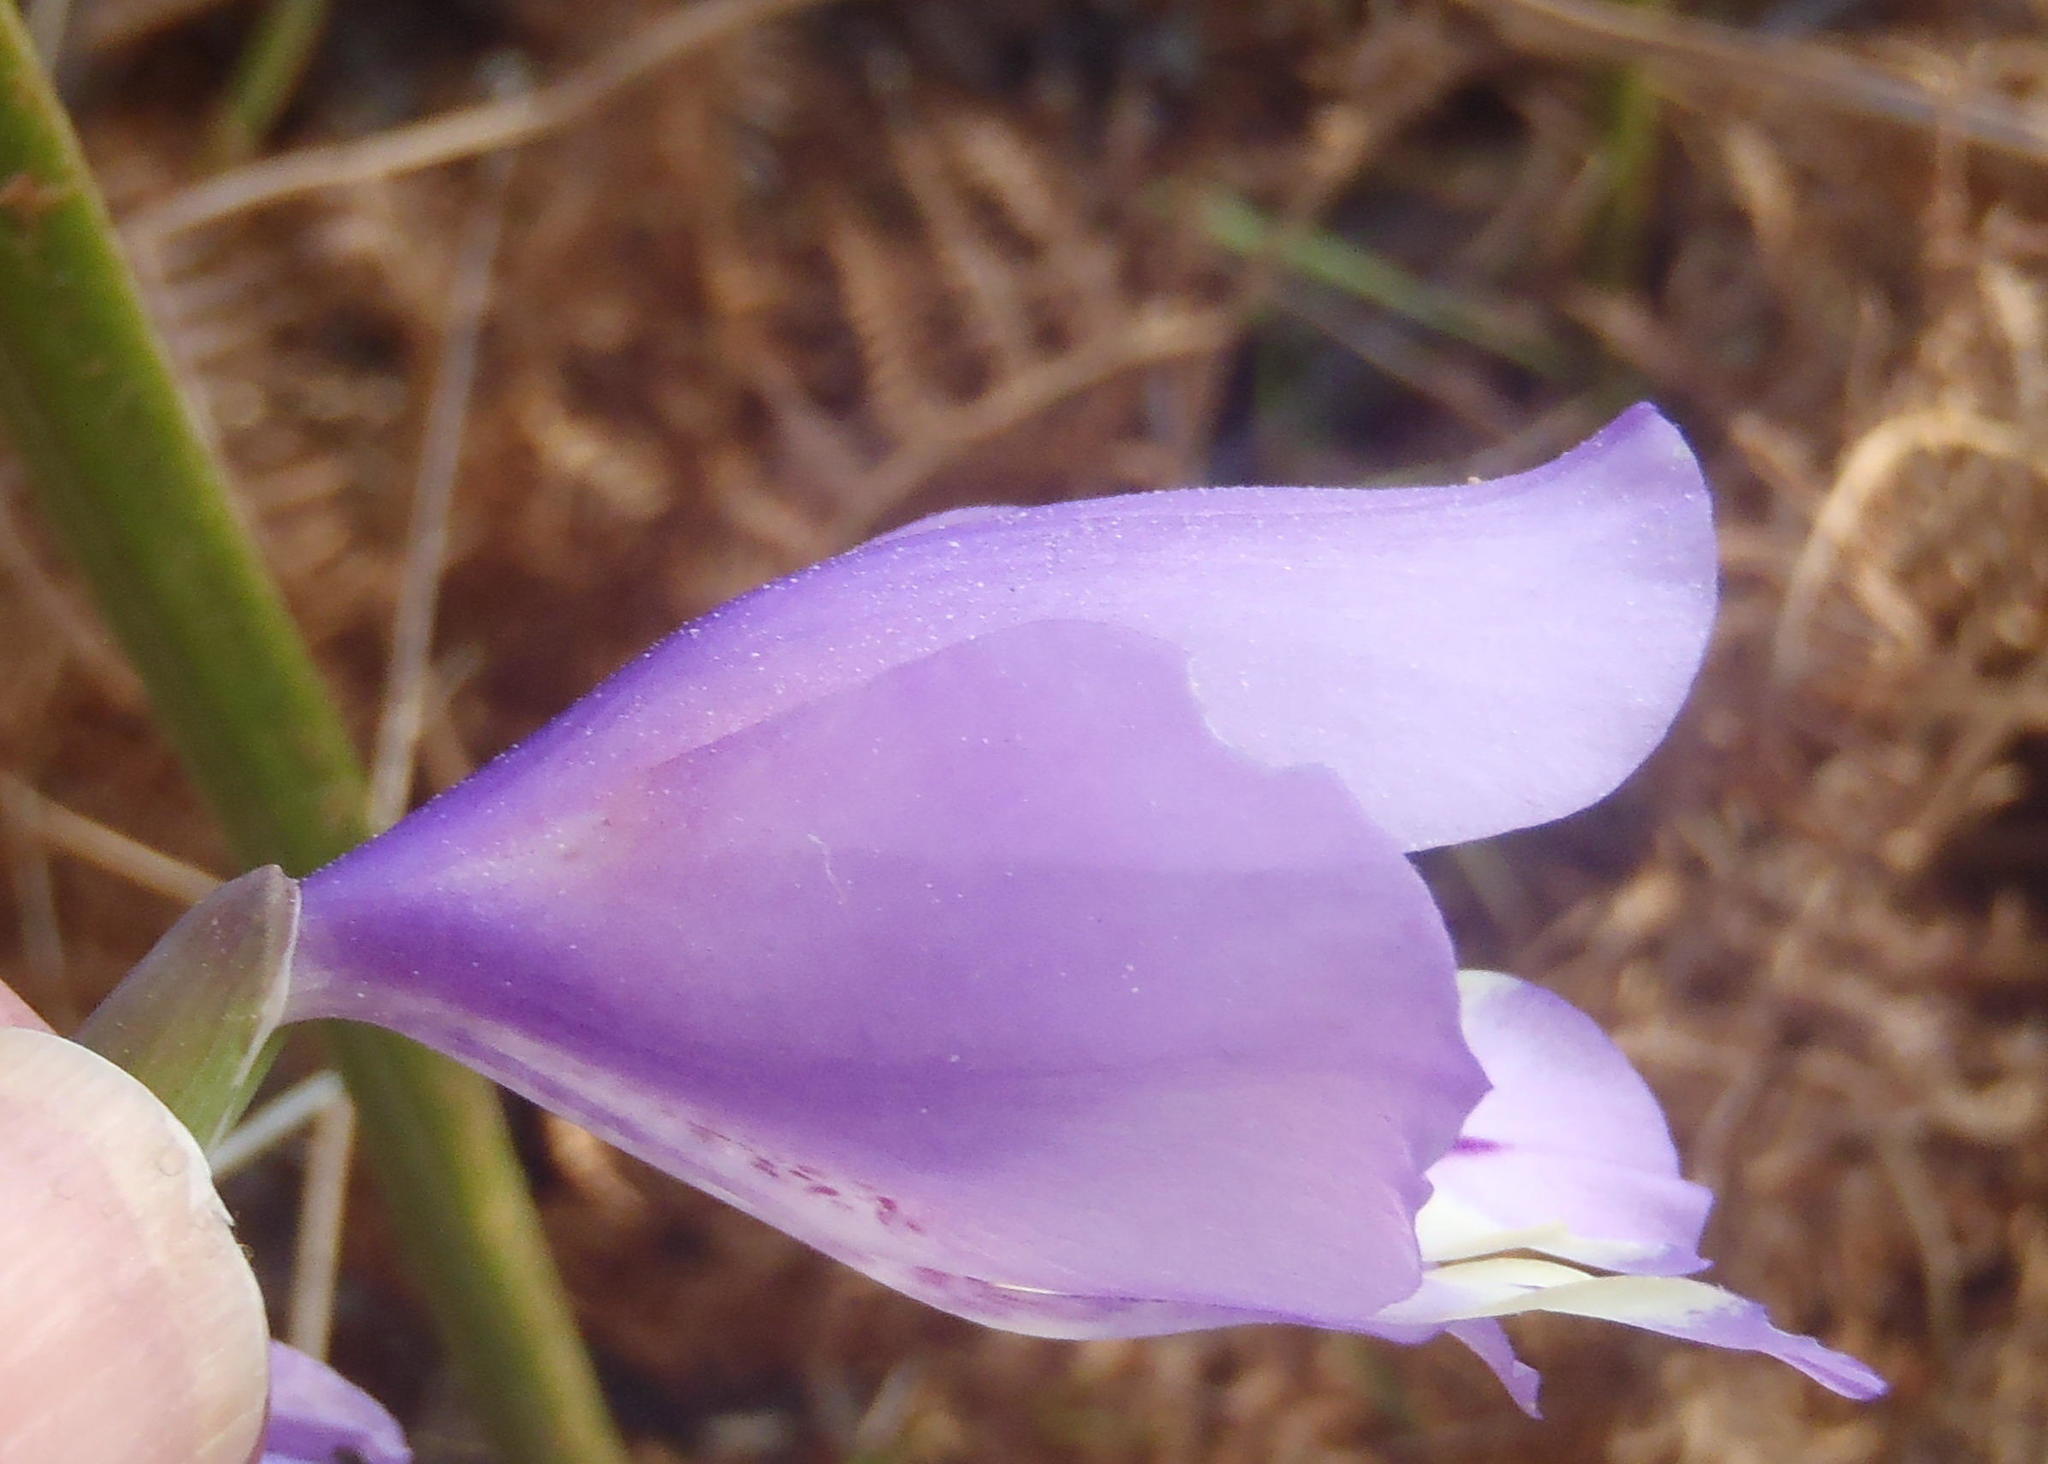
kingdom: Plantae
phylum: Tracheophyta
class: Liliopsida
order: Asparagales
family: Iridaceae
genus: Gladiolus
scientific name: Gladiolus rogersii
